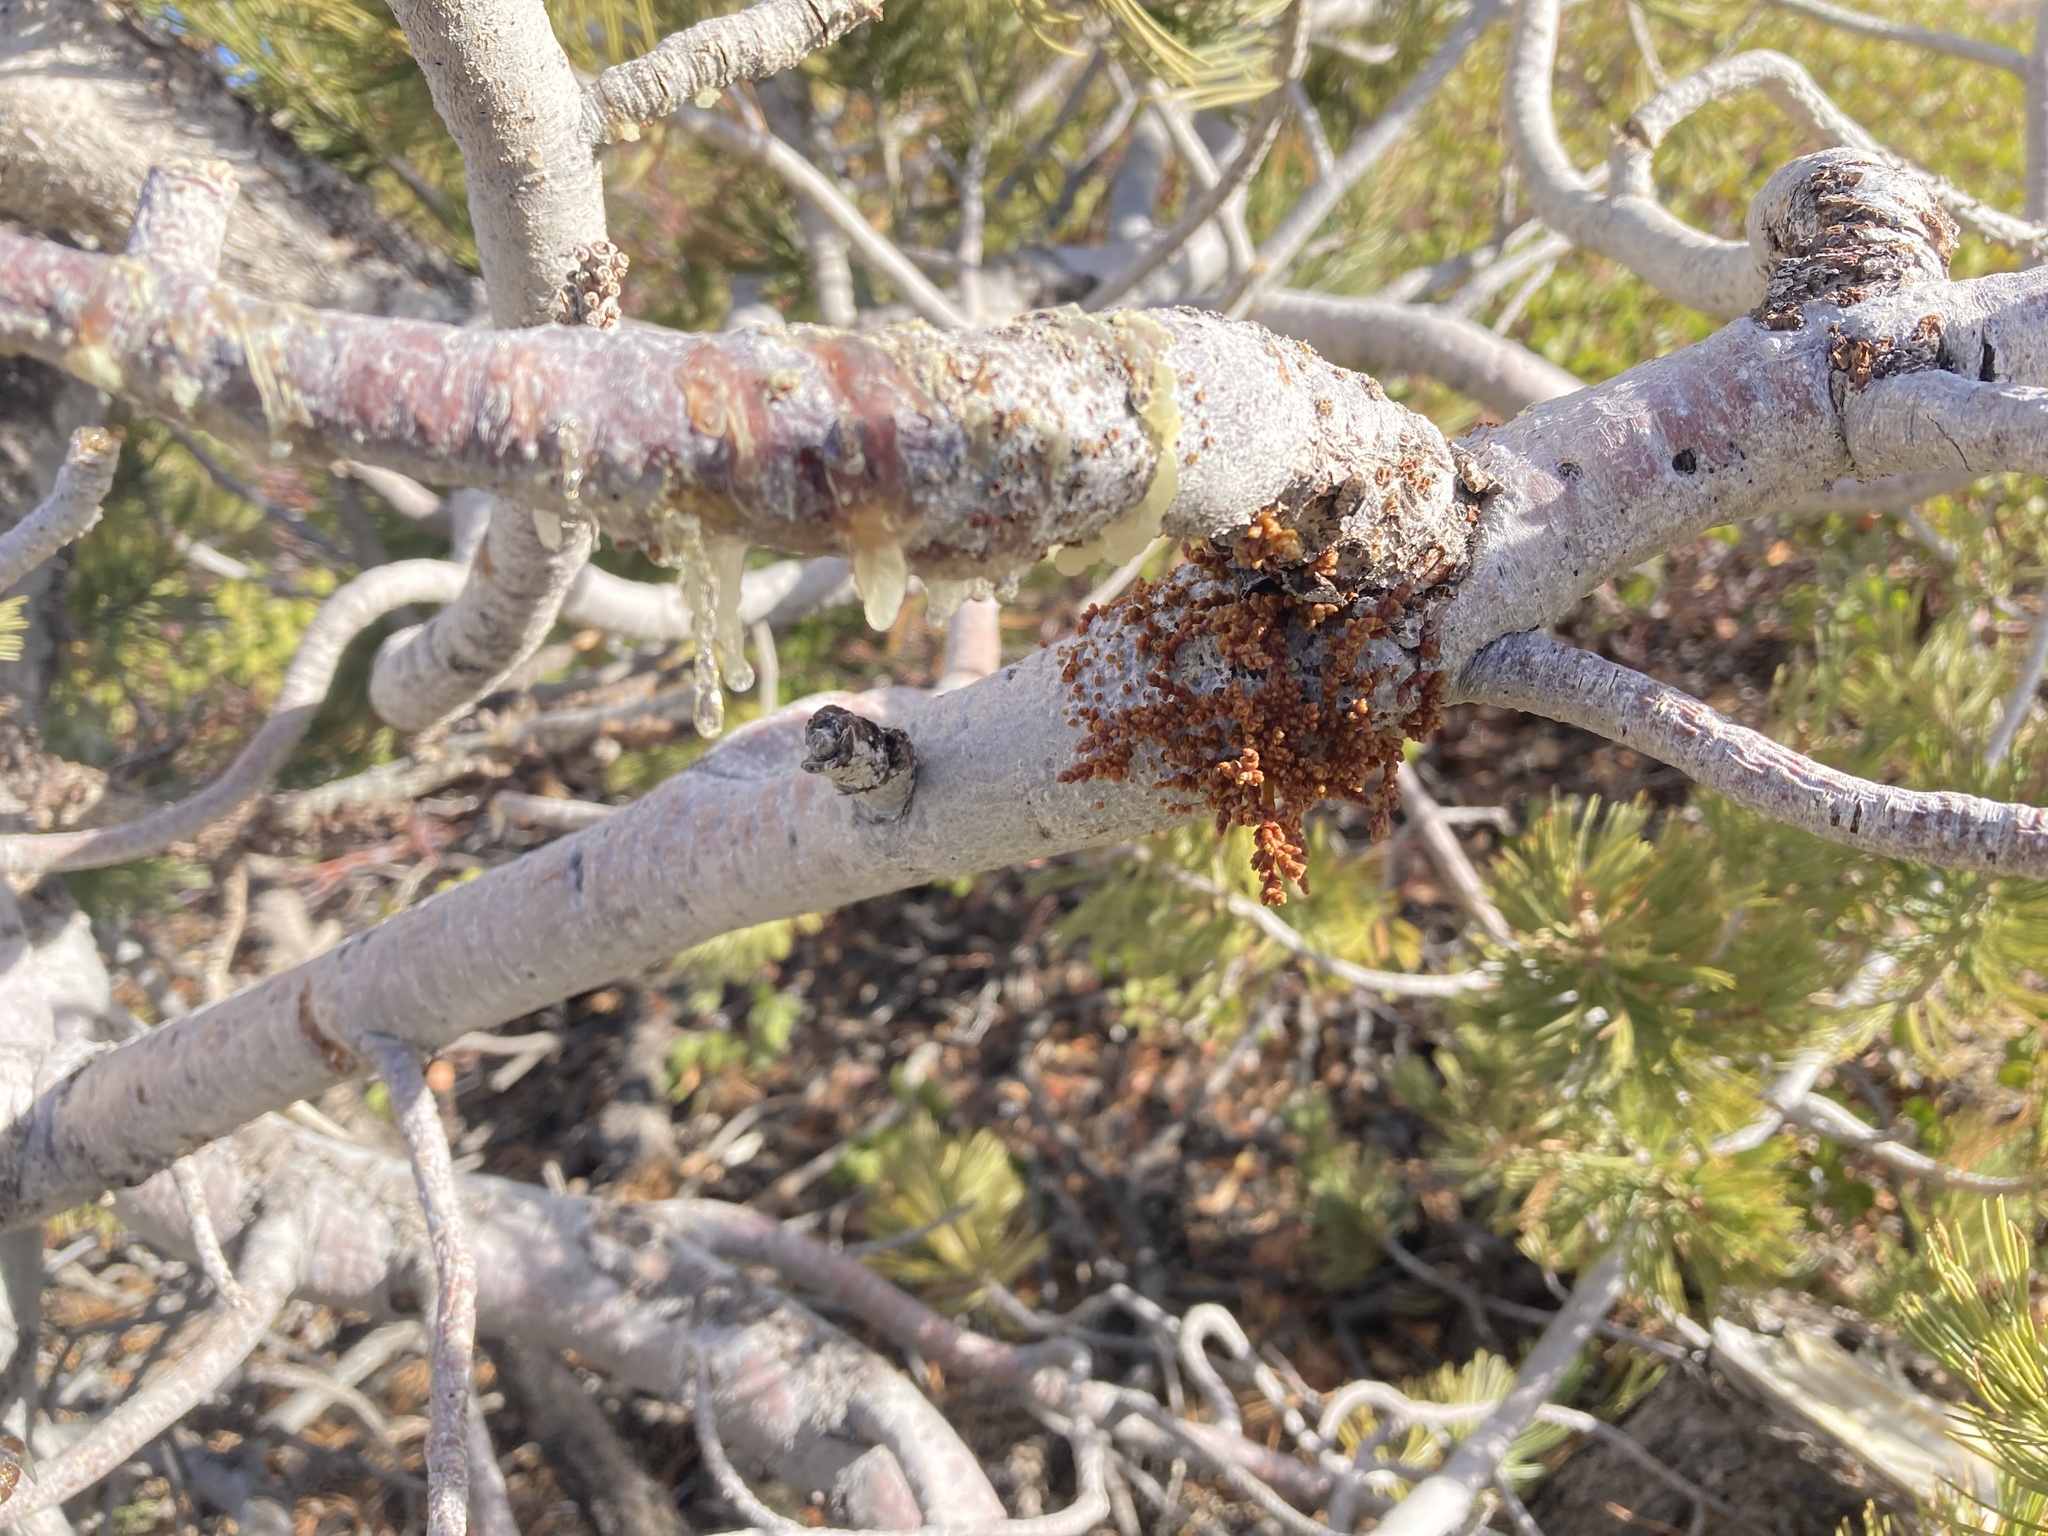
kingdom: Plantae
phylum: Tracheophyta
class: Magnoliopsida
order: Santalales
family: Viscaceae
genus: Arceuthobium
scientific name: Arceuthobium campylopodum
